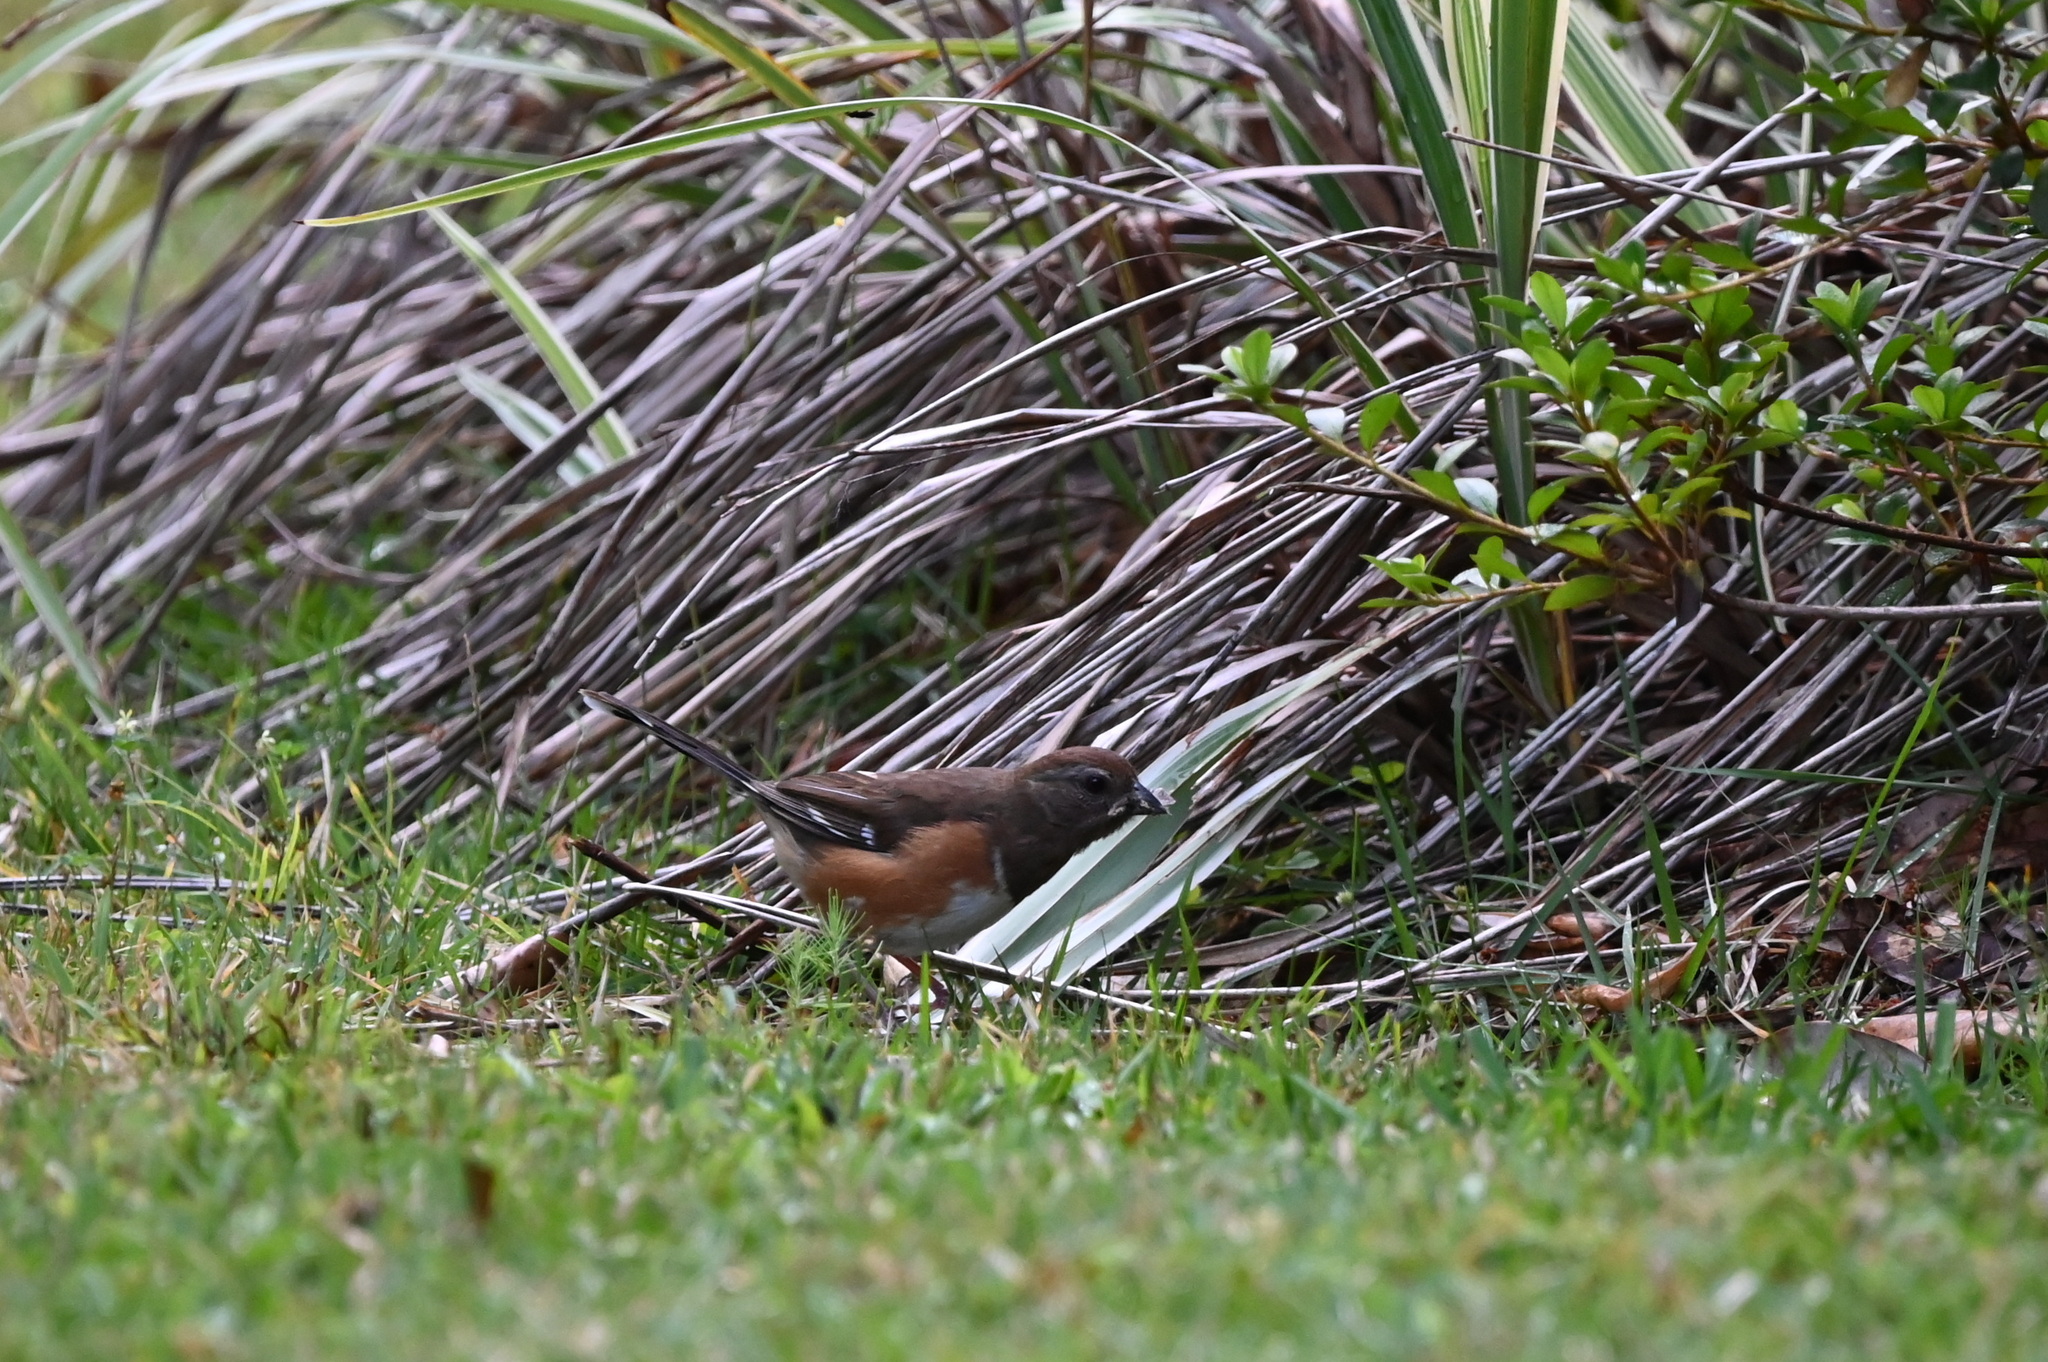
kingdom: Animalia
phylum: Chordata
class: Aves
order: Passeriformes
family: Passerellidae
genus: Pipilo
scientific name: Pipilo erythrophthalmus
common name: Eastern towhee
